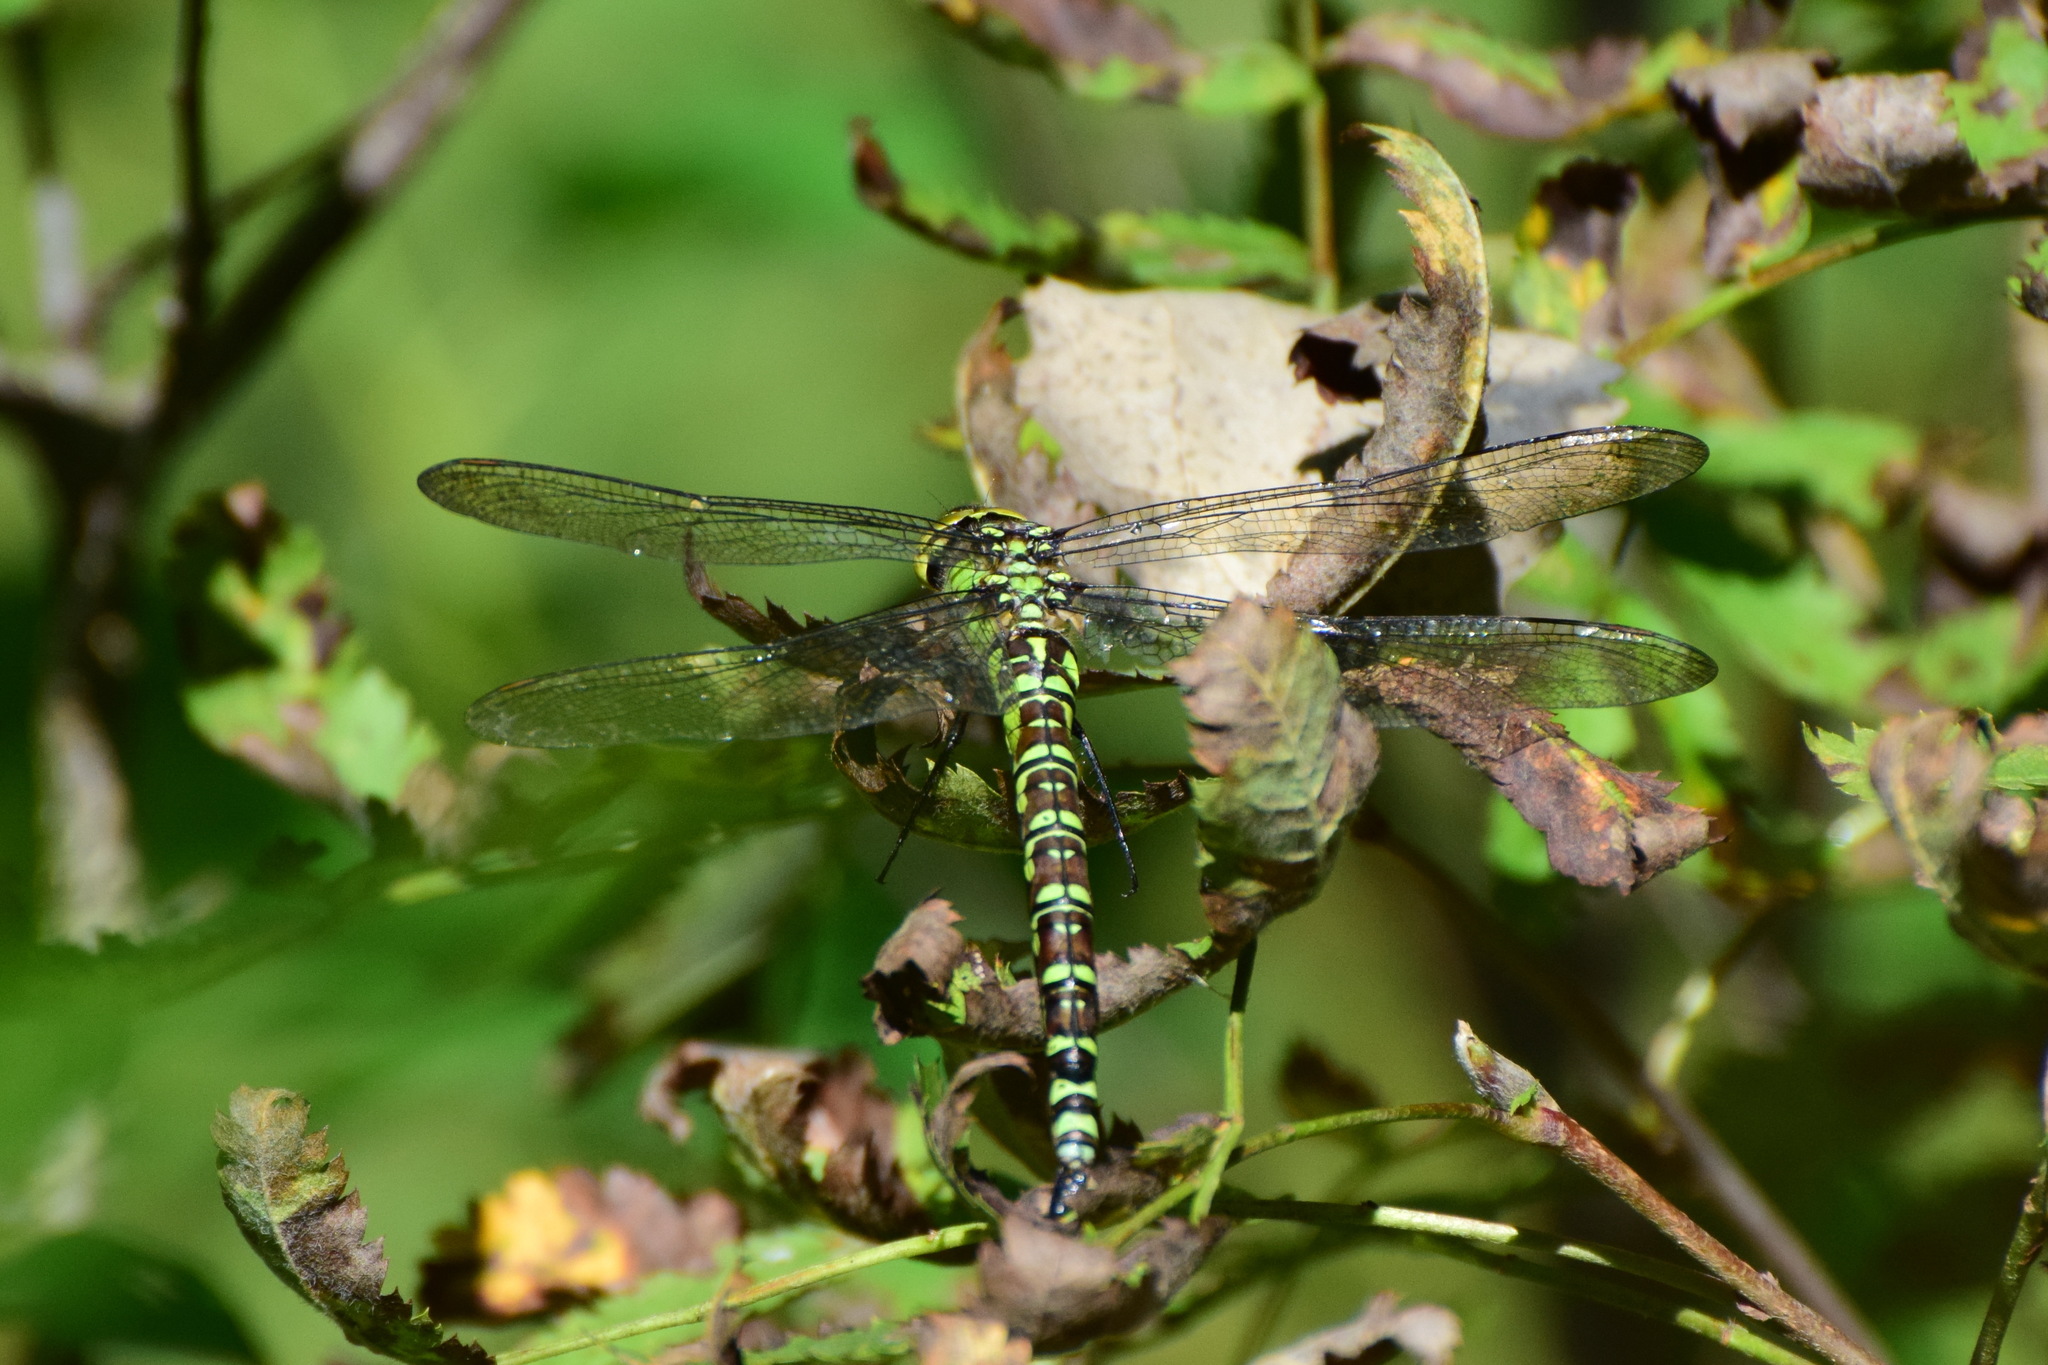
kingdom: Animalia
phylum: Arthropoda
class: Insecta
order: Odonata
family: Aeshnidae
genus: Aeshna
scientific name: Aeshna cyanea
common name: Southern hawker
